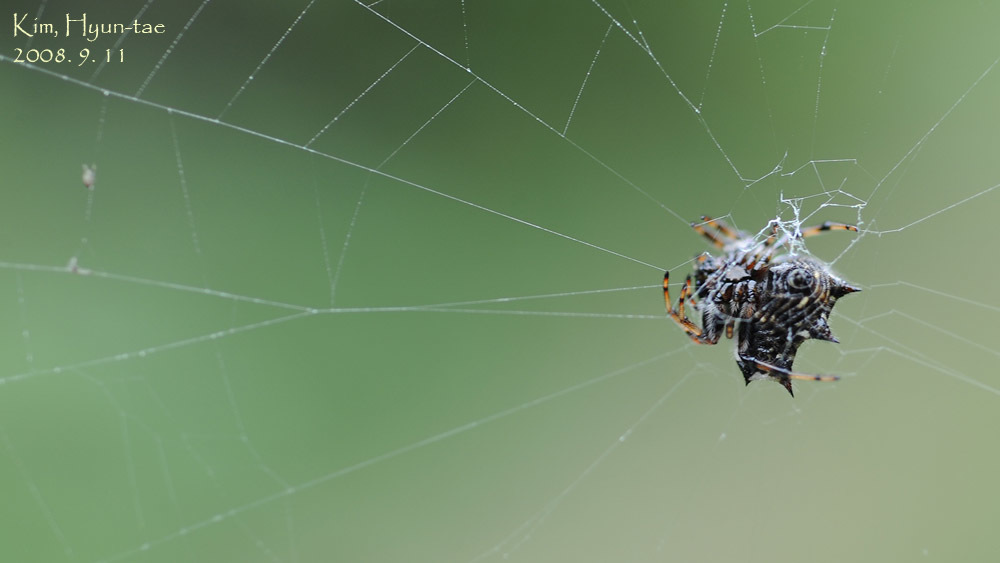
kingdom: Animalia
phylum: Arthropoda
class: Arachnida
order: Araneae
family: Araneidae
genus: Gasteracantha
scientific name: Gasteracantha kuhli
